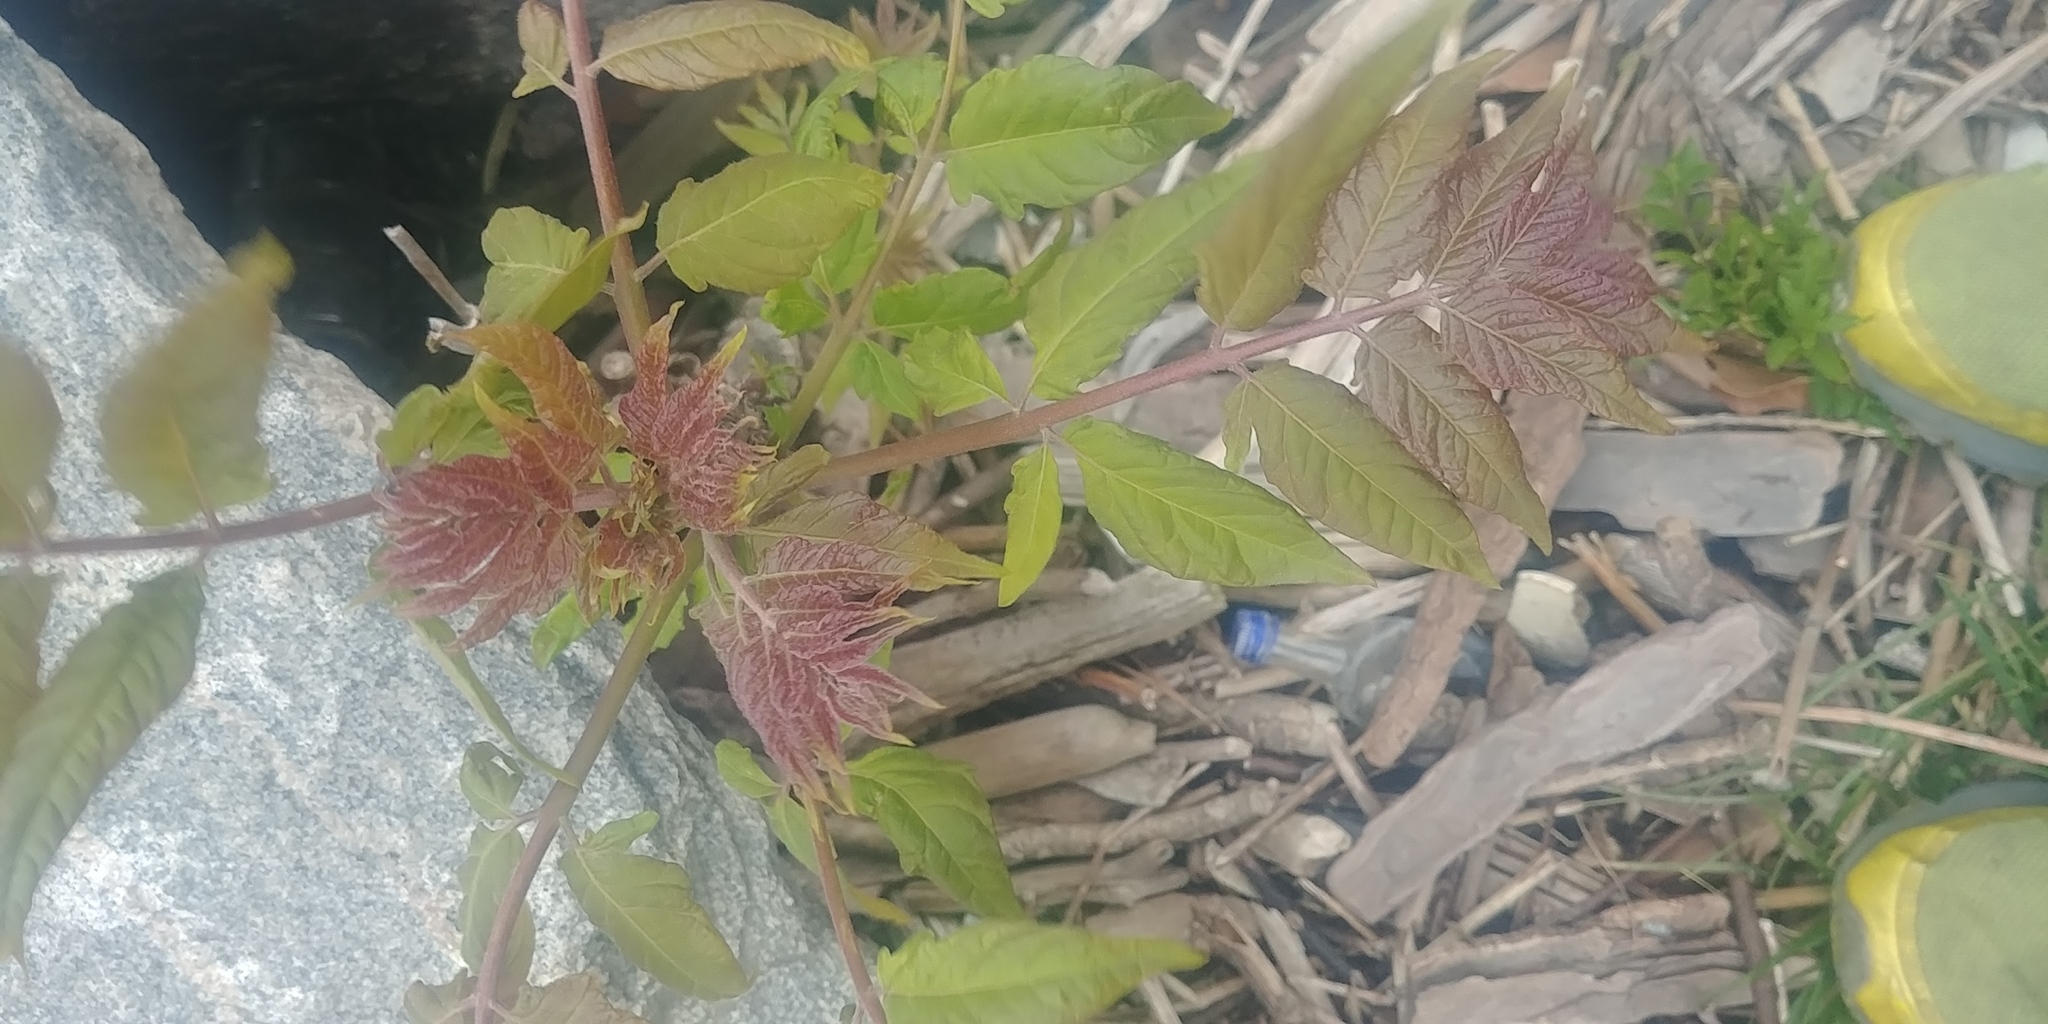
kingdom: Plantae
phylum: Tracheophyta
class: Magnoliopsida
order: Sapindales
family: Simaroubaceae
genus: Ailanthus
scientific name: Ailanthus altissima
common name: Tree-of-heaven
